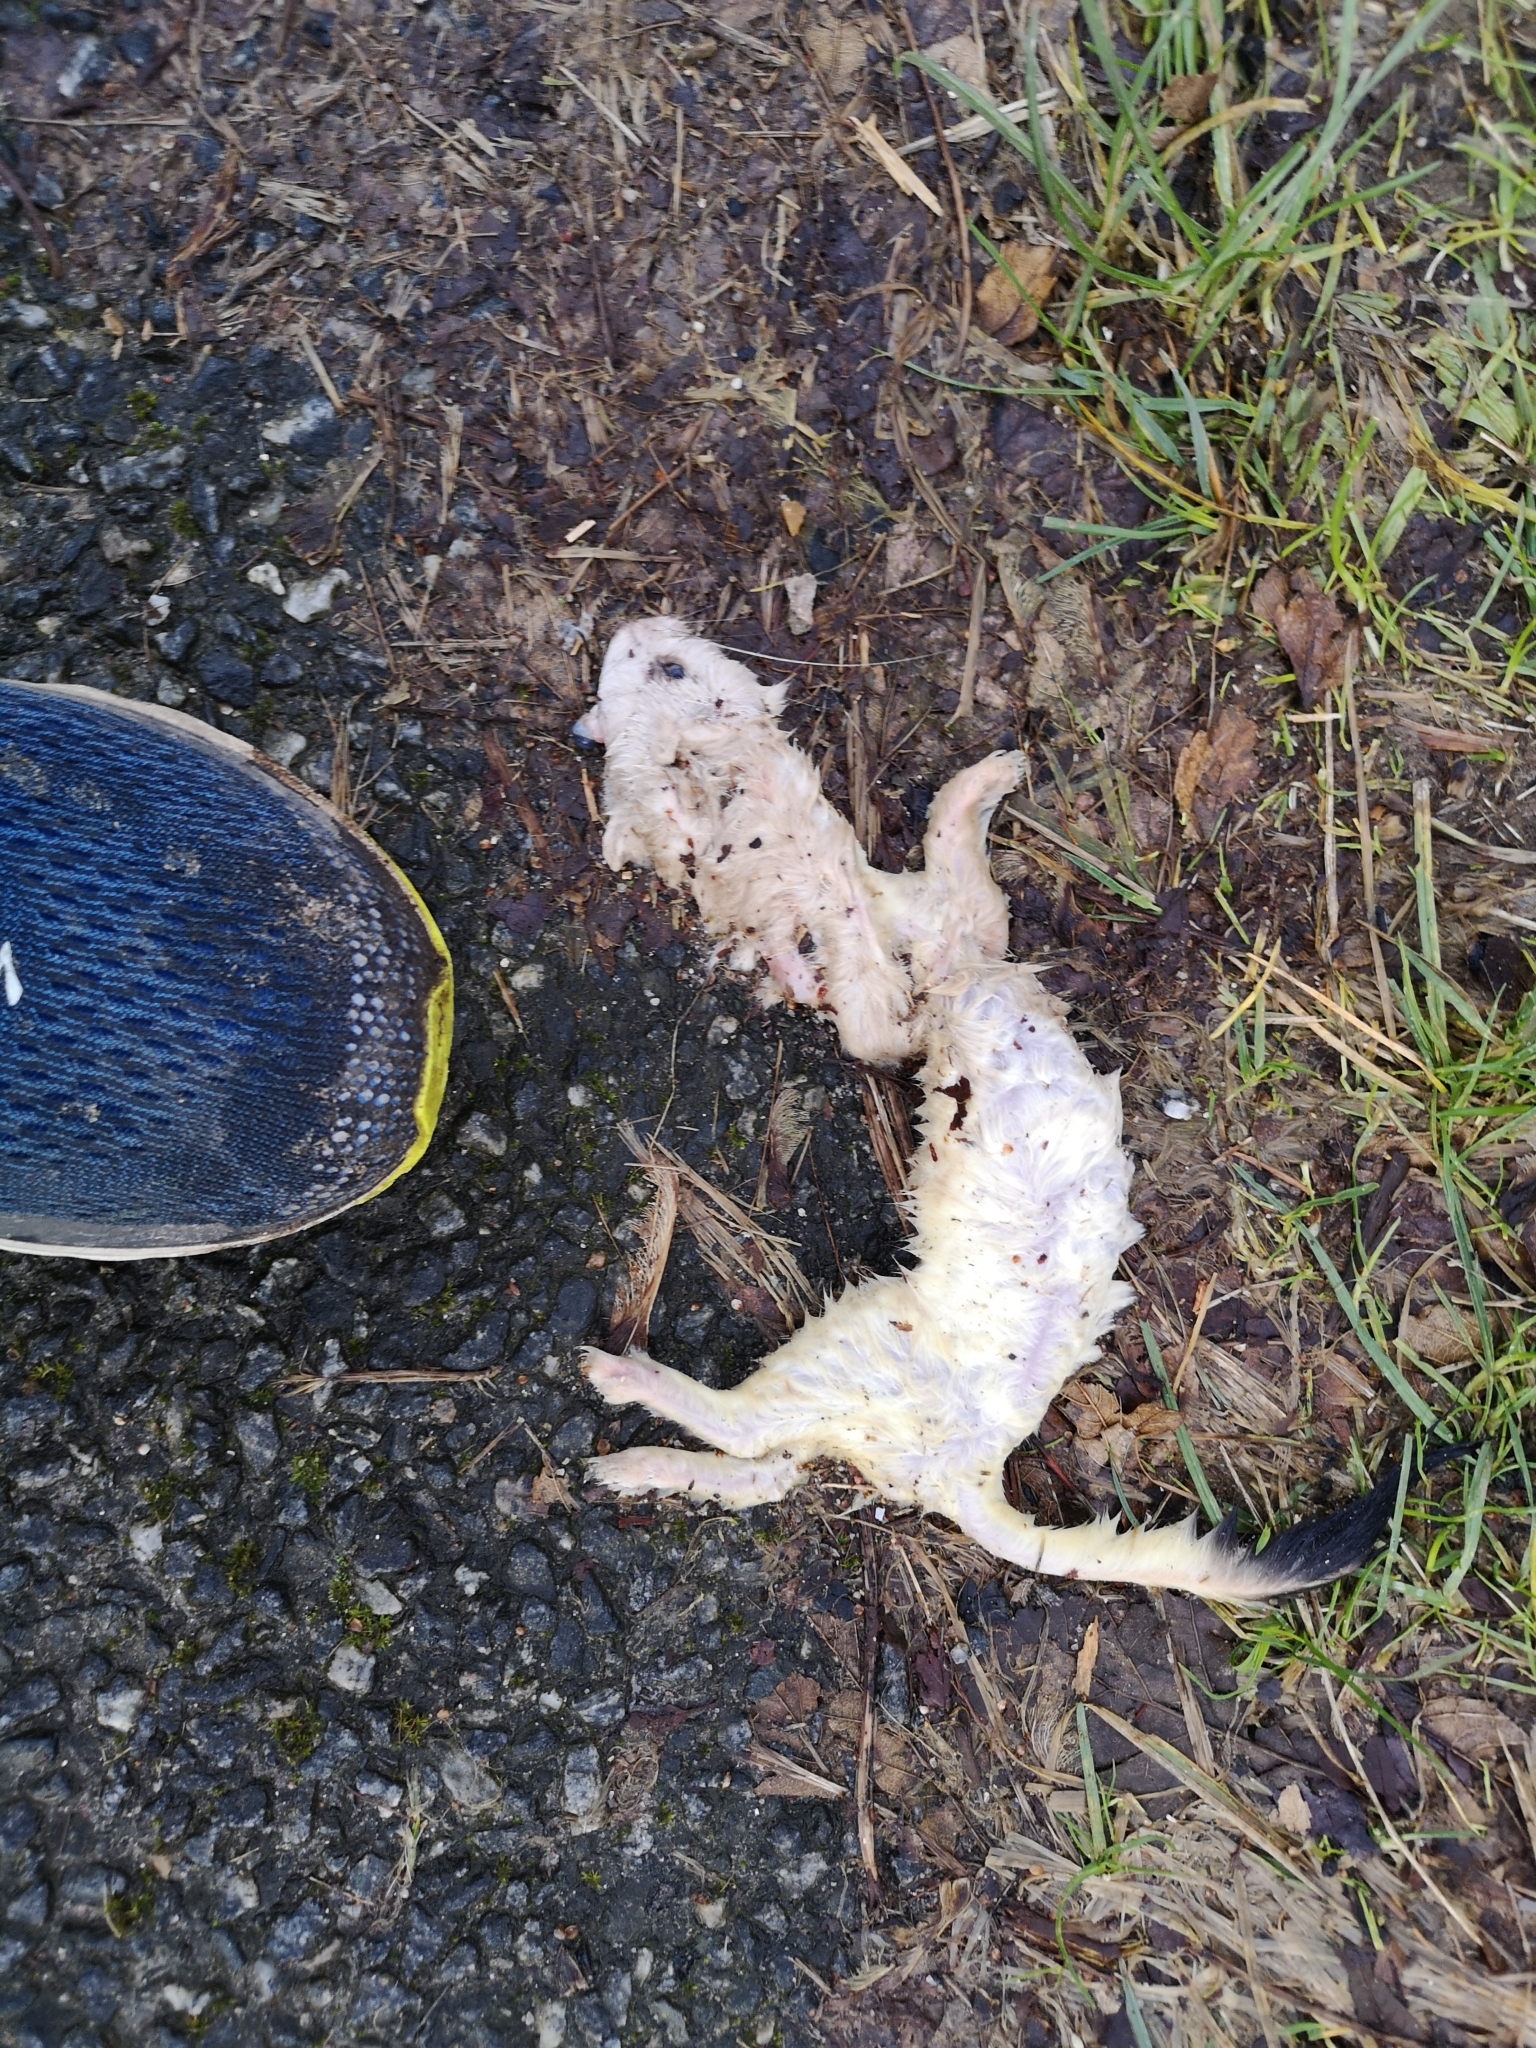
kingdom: Animalia
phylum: Chordata
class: Mammalia
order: Carnivora
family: Mustelidae
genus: Mustela
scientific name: Mustela erminea
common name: Stoat
